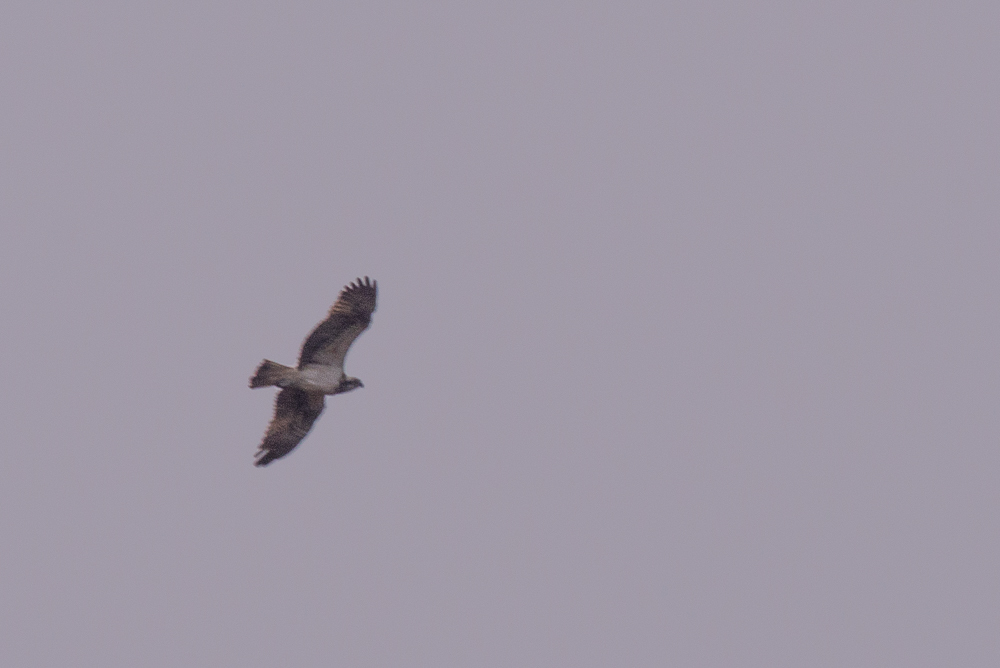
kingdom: Animalia
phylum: Chordata
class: Aves
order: Accipitriformes
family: Pandionidae
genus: Pandion
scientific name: Pandion haliaetus
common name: Osprey
